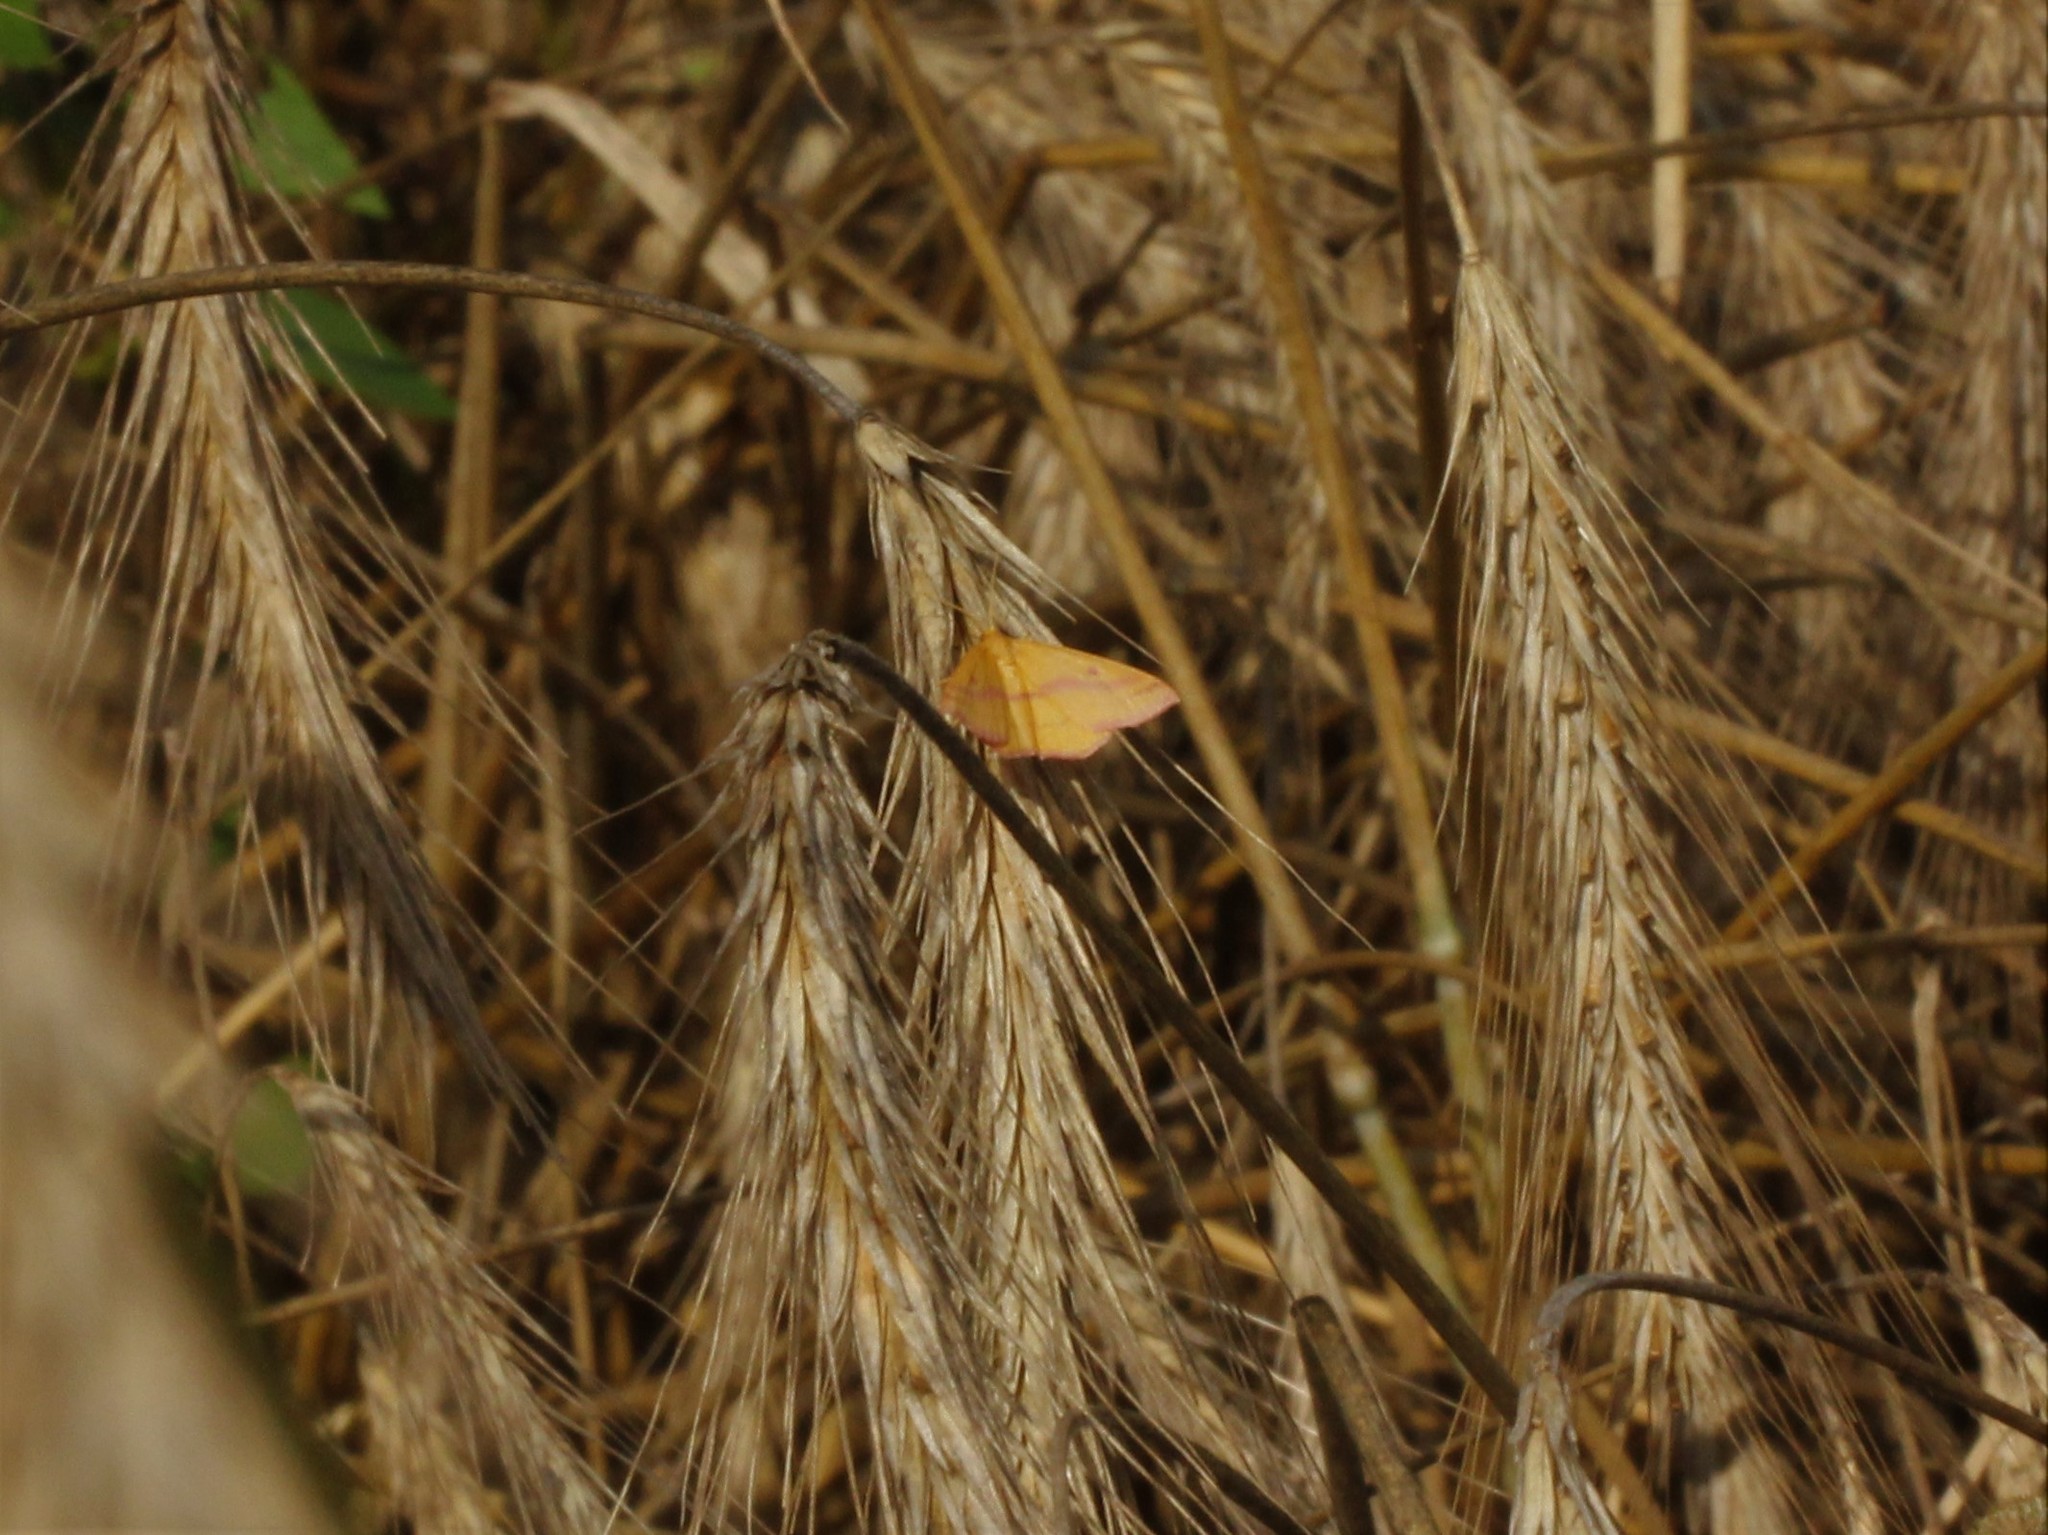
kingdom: Animalia
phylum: Arthropoda
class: Insecta
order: Lepidoptera
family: Geometridae
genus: Haematopis
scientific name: Haematopis grataria
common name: Chickweed geometer
